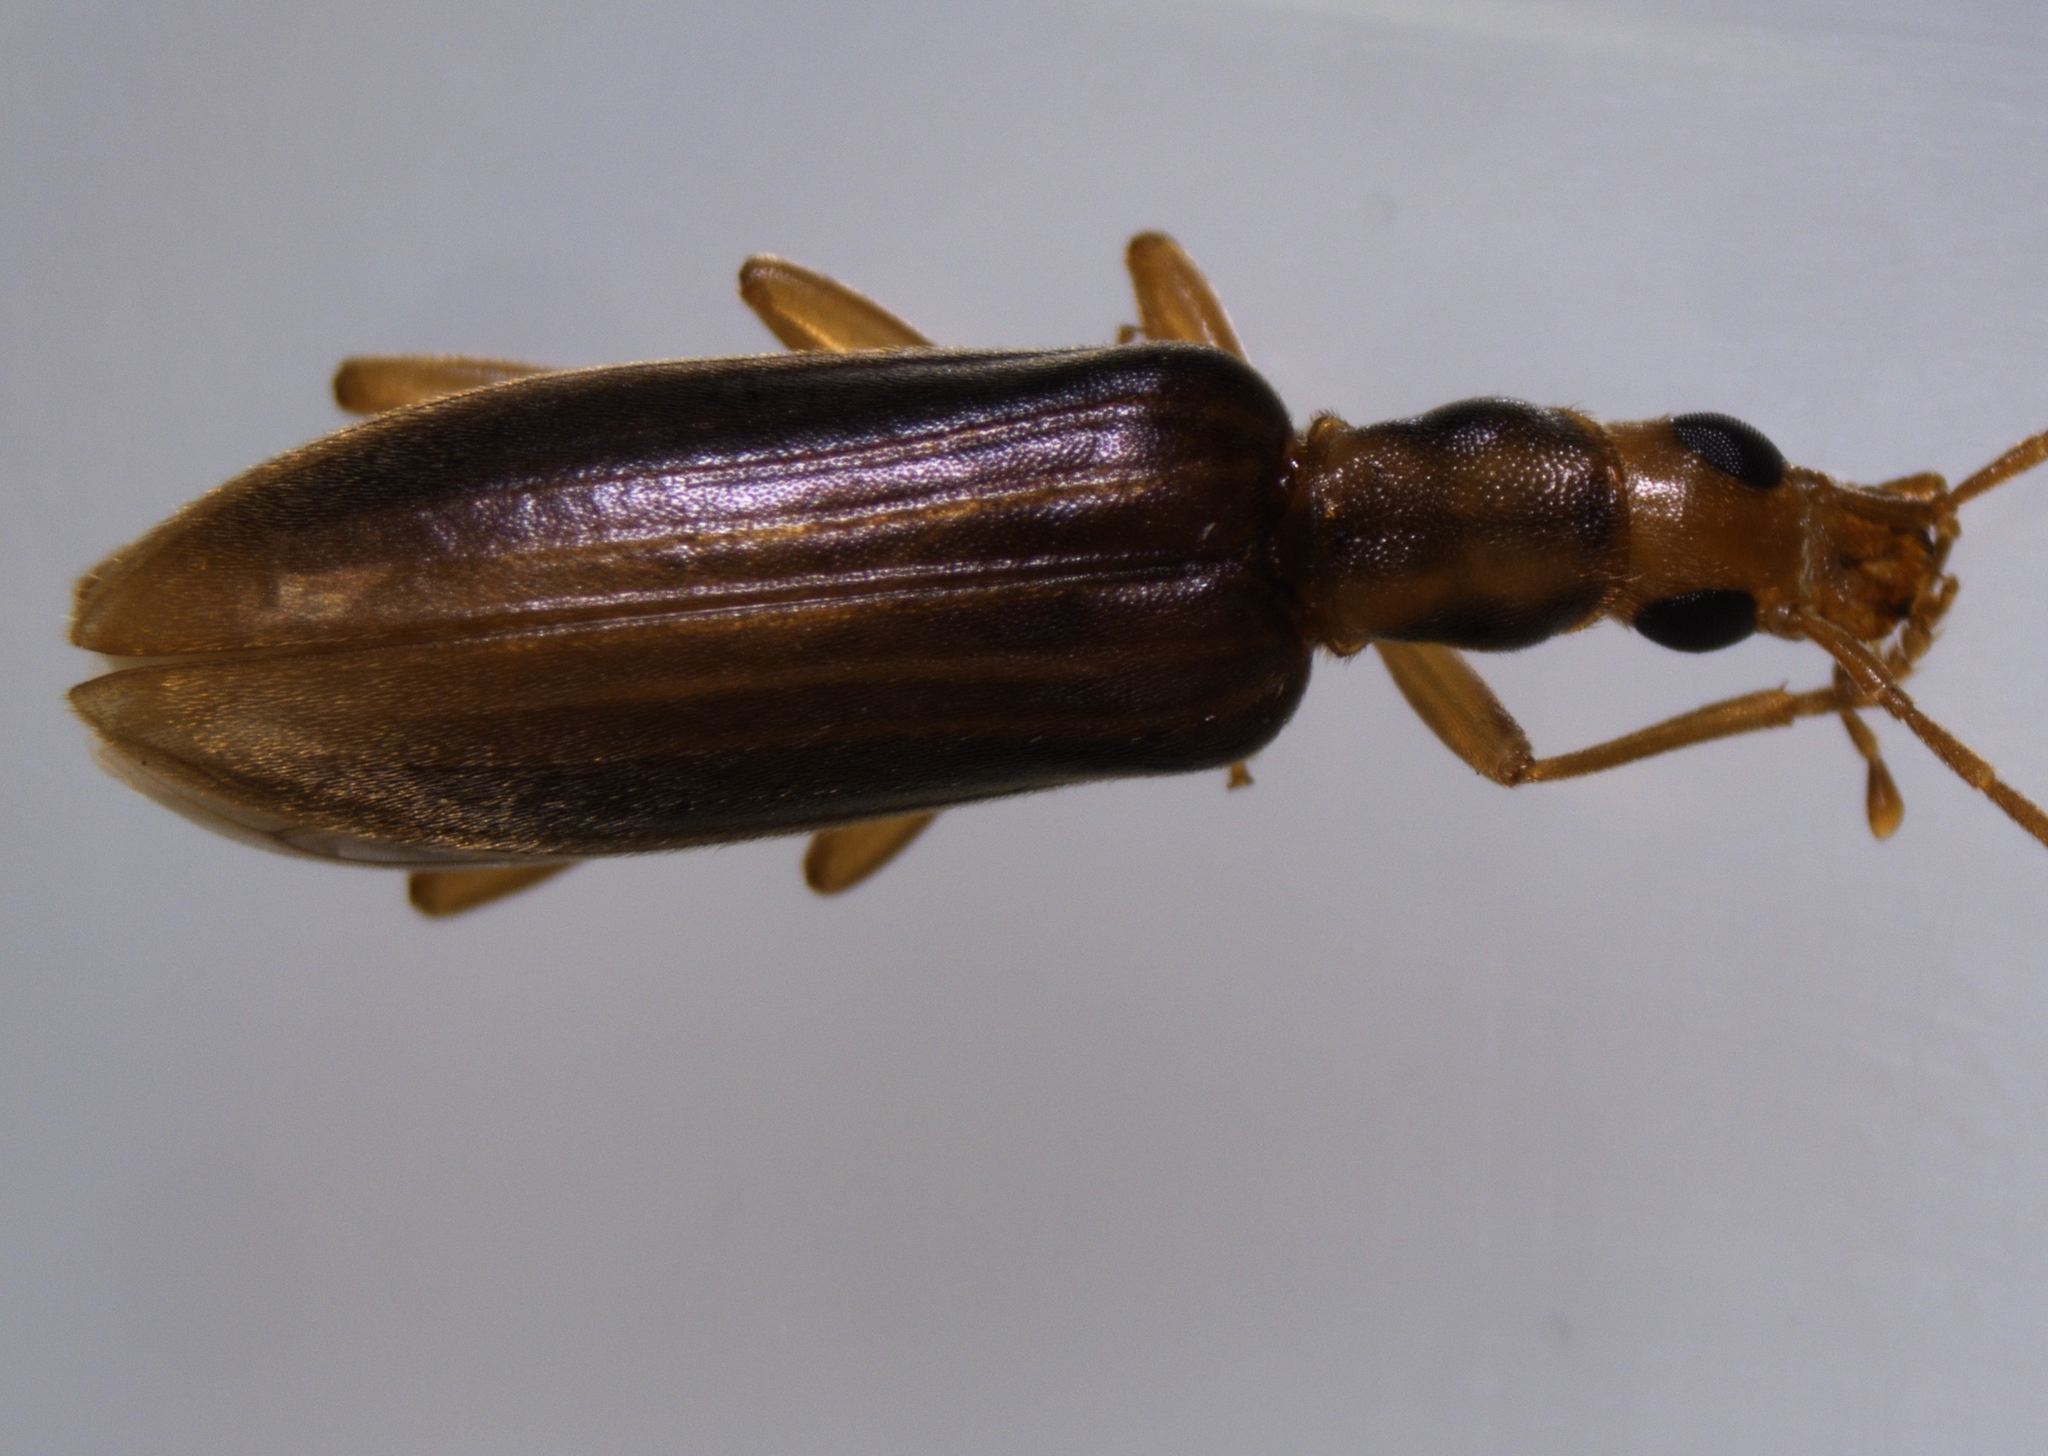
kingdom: Animalia
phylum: Arthropoda
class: Insecta
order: Coleoptera
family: Oedemeridae
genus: Thelyphassa
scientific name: Thelyphassa
